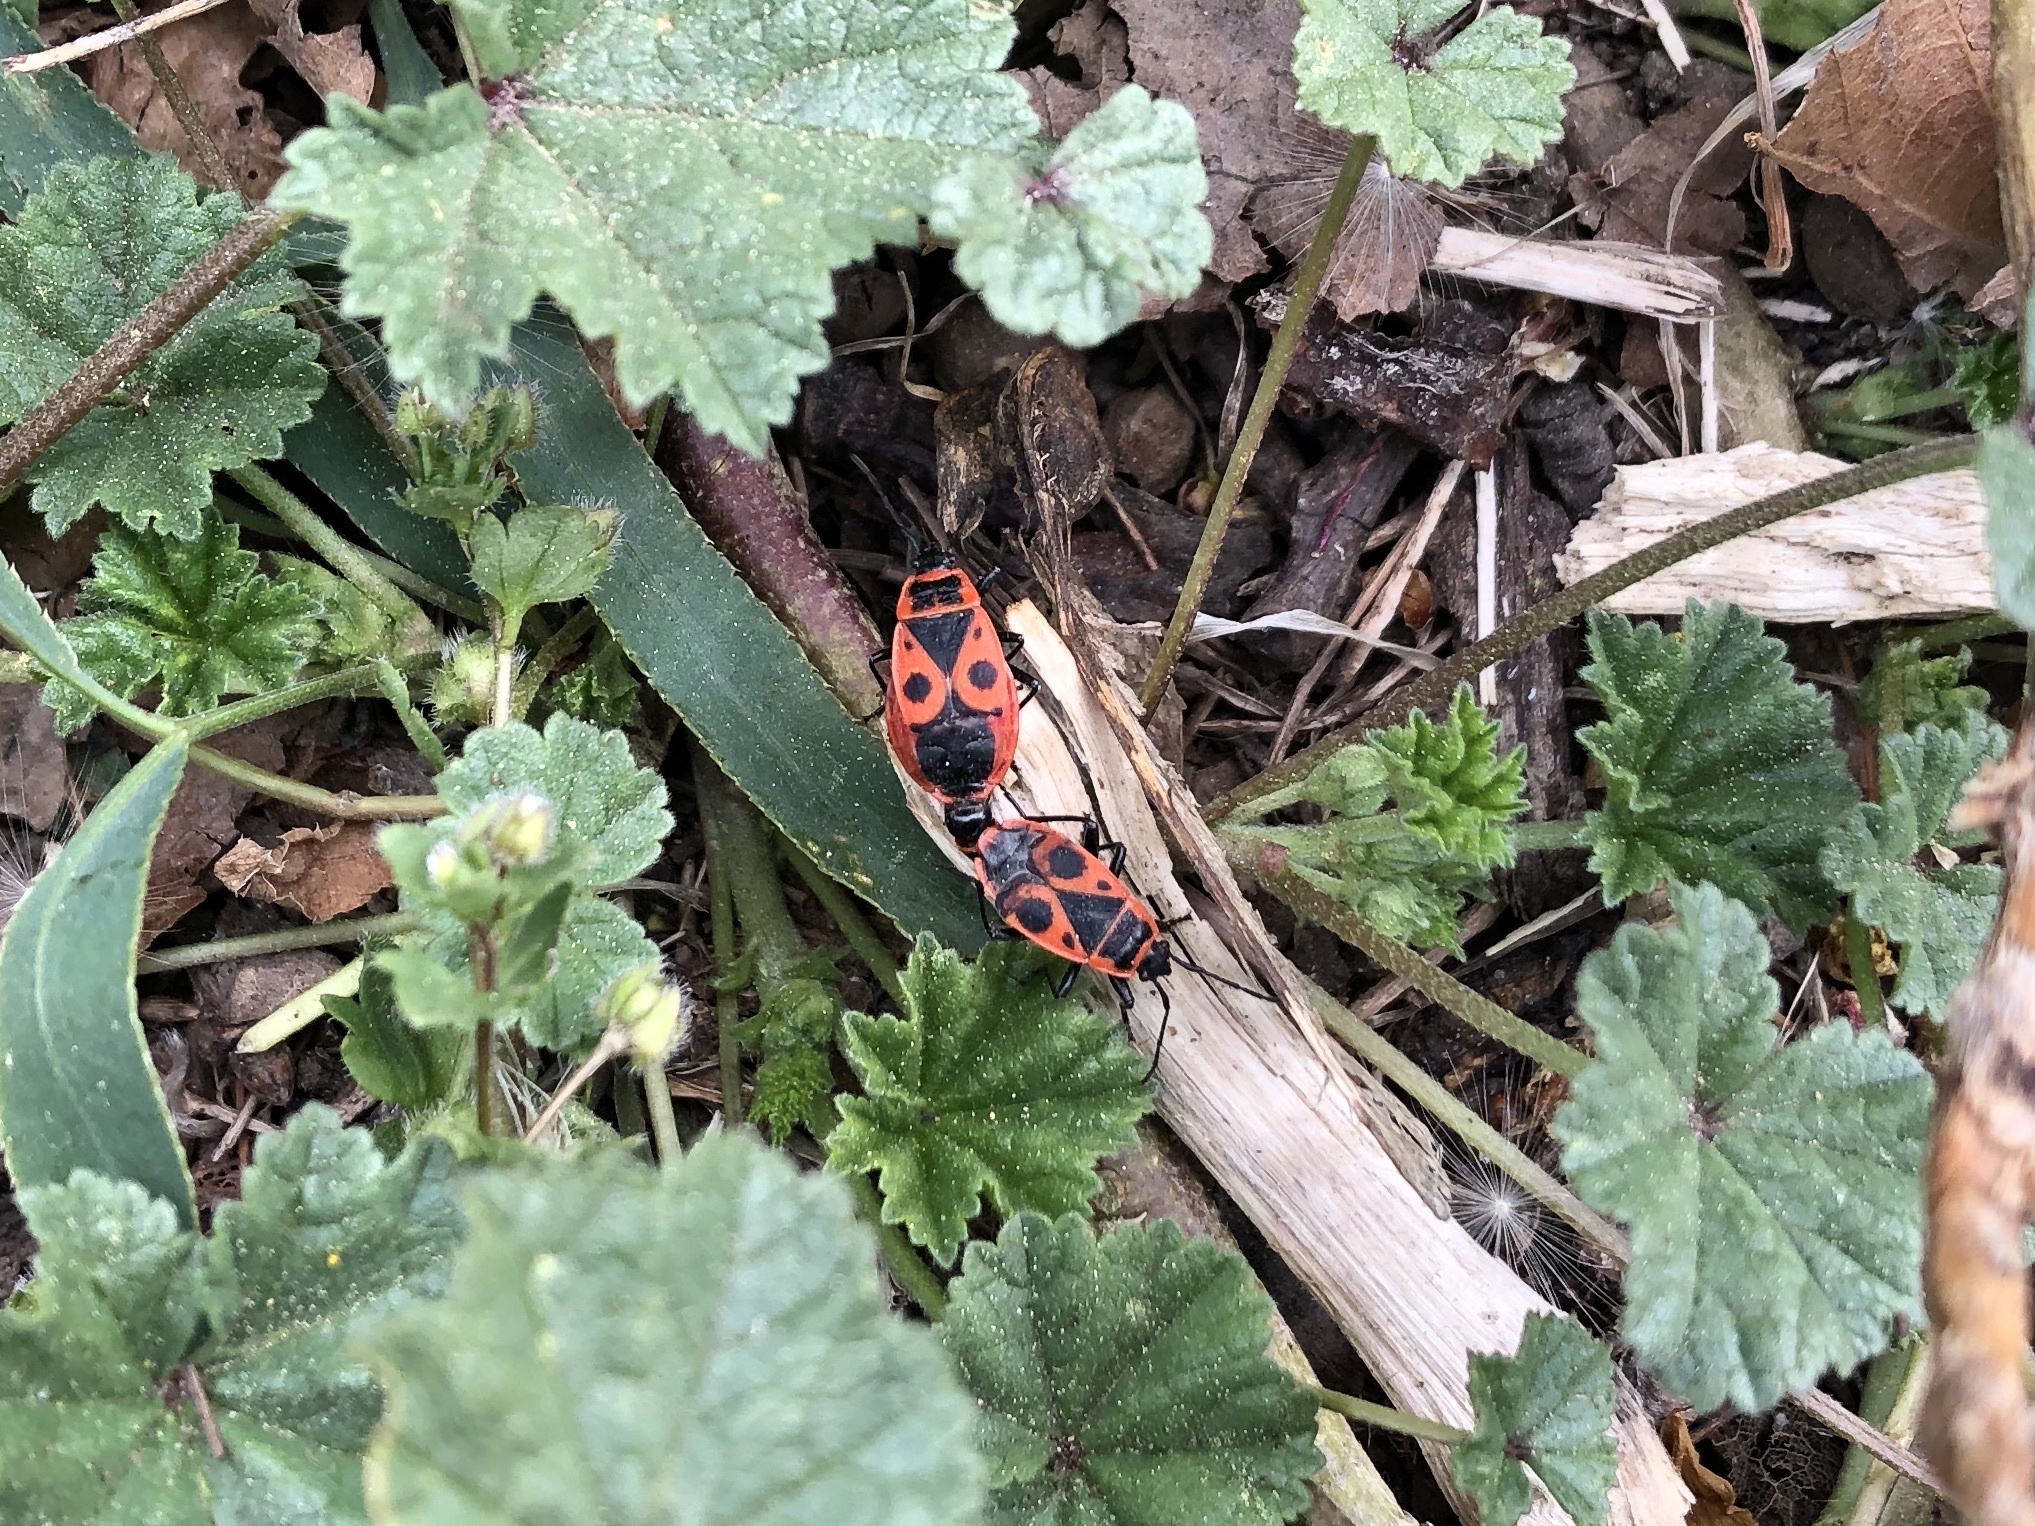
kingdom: Animalia
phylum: Arthropoda
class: Insecta
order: Hemiptera
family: Pyrrhocoridae
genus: Pyrrhocoris
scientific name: Pyrrhocoris apterus
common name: Firebug
